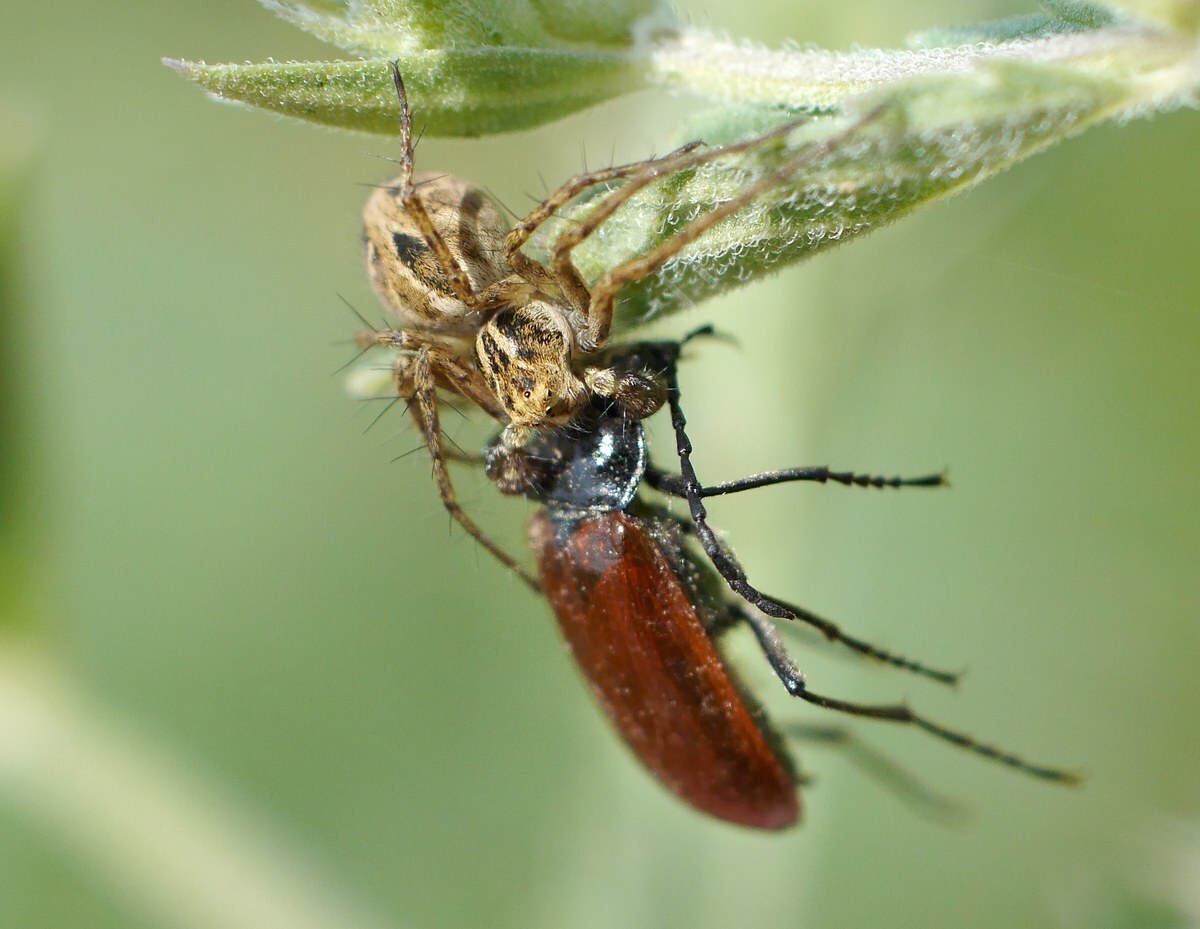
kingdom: Animalia
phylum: Arthropoda
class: Arachnida
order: Araneae
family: Oxyopidae
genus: Oxyopes
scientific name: Oxyopes heterophthalmus
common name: Lynx spider
